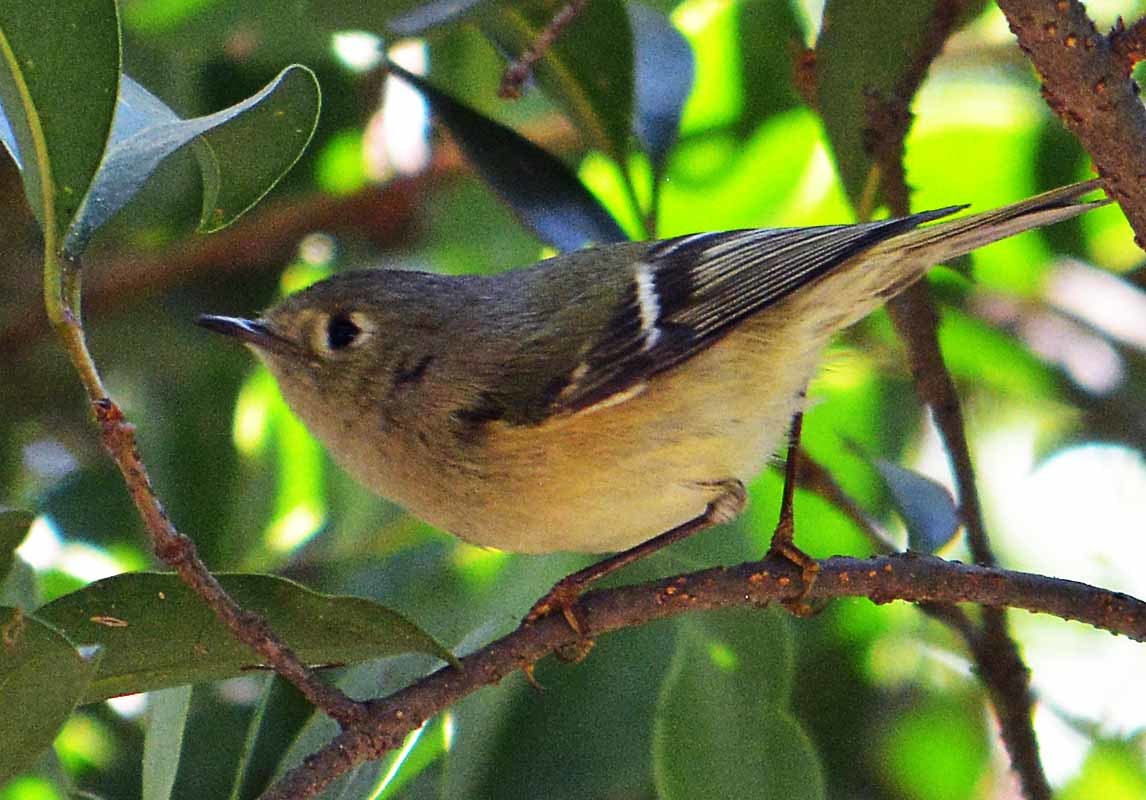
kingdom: Animalia
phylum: Chordata
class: Aves
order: Passeriformes
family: Regulidae
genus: Regulus
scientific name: Regulus calendula
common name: Ruby-crowned kinglet
